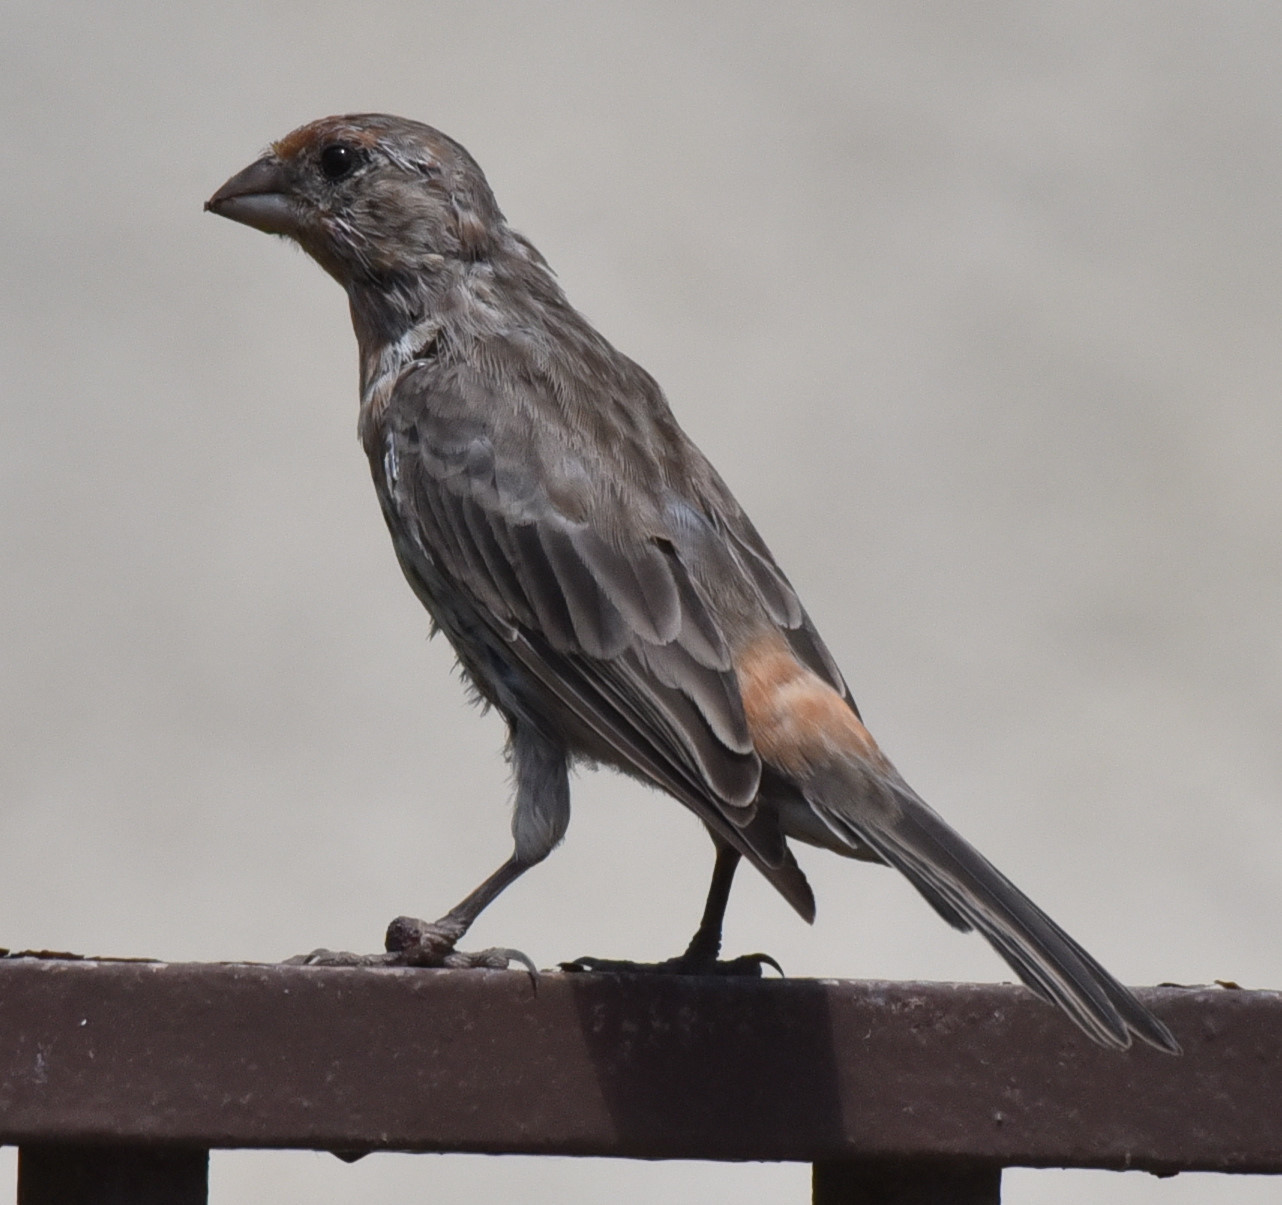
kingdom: Animalia
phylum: Chordata
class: Aves
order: Passeriformes
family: Fringillidae
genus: Haemorhous
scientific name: Haemorhous mexicanus
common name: House finch
